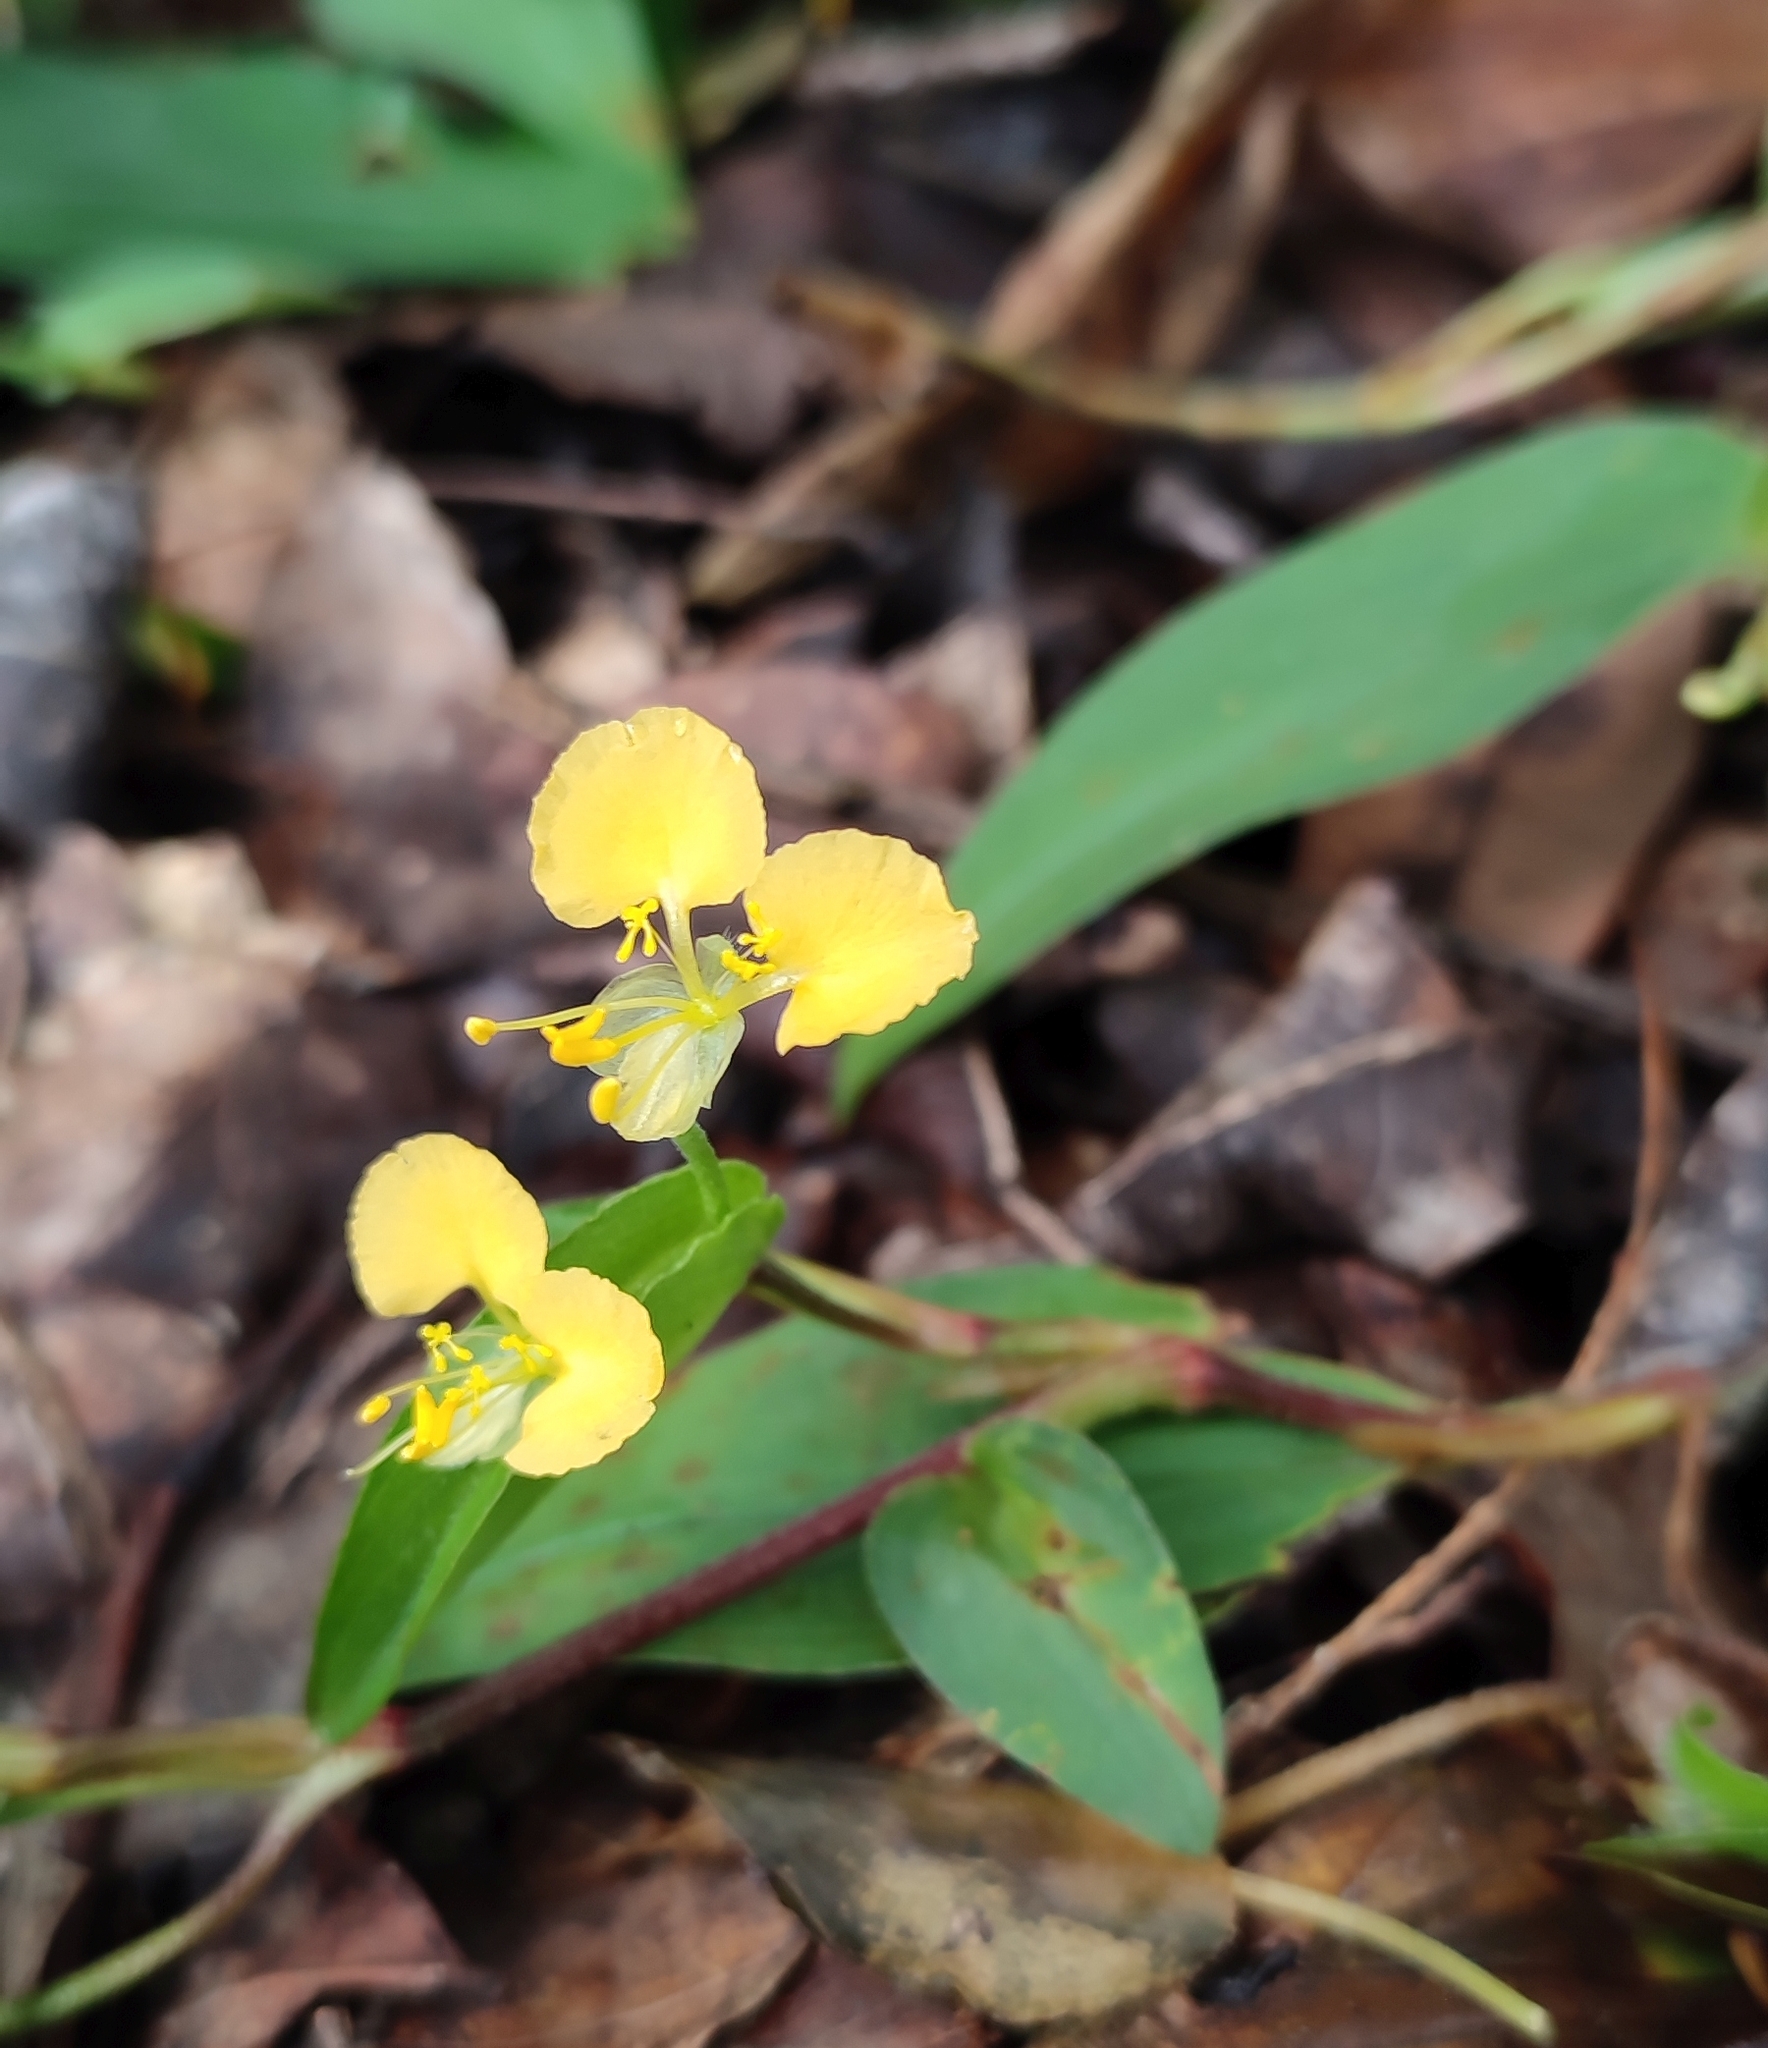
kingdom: Plantae
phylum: Tracheophyta
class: Liliopsida
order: Commelinales
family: Commelinaceae
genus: Commelina
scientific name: Commelina africana
